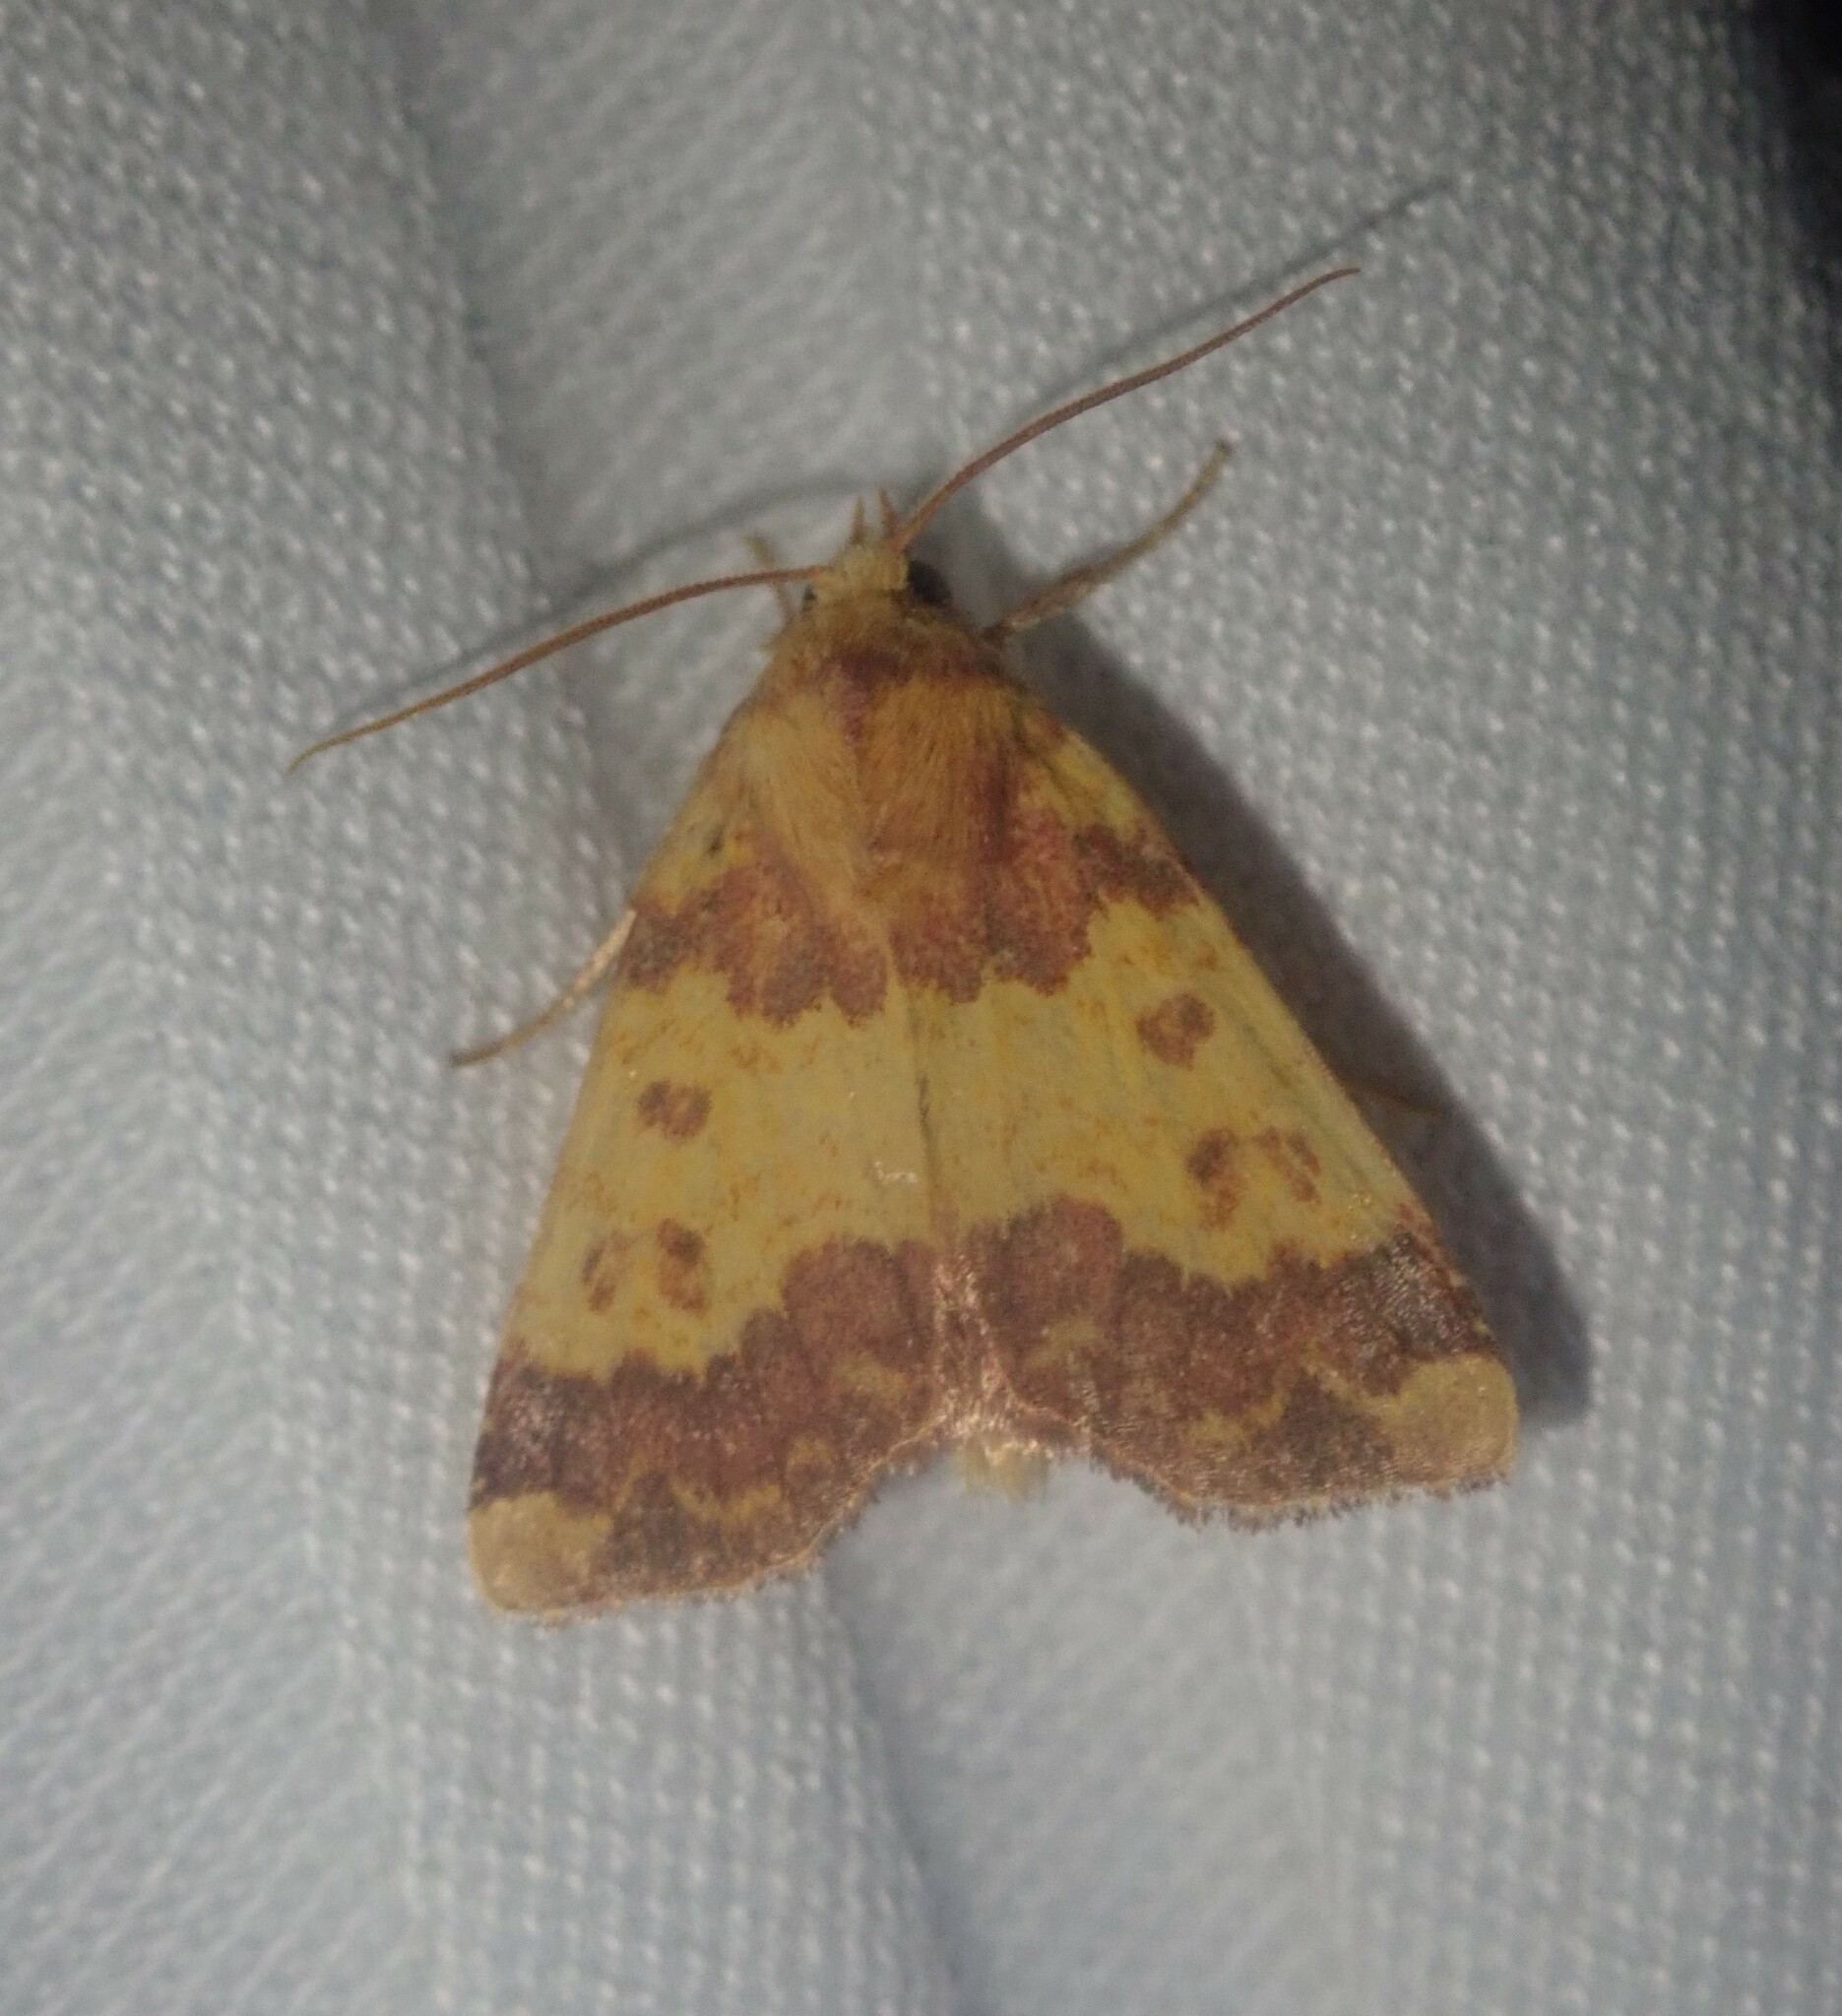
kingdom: Animalia
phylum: Arthropoda
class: Insecta
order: Lepidoptera
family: Noctuidae
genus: Tiliacea
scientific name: Tiliacea aurago
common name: Barred sallow
